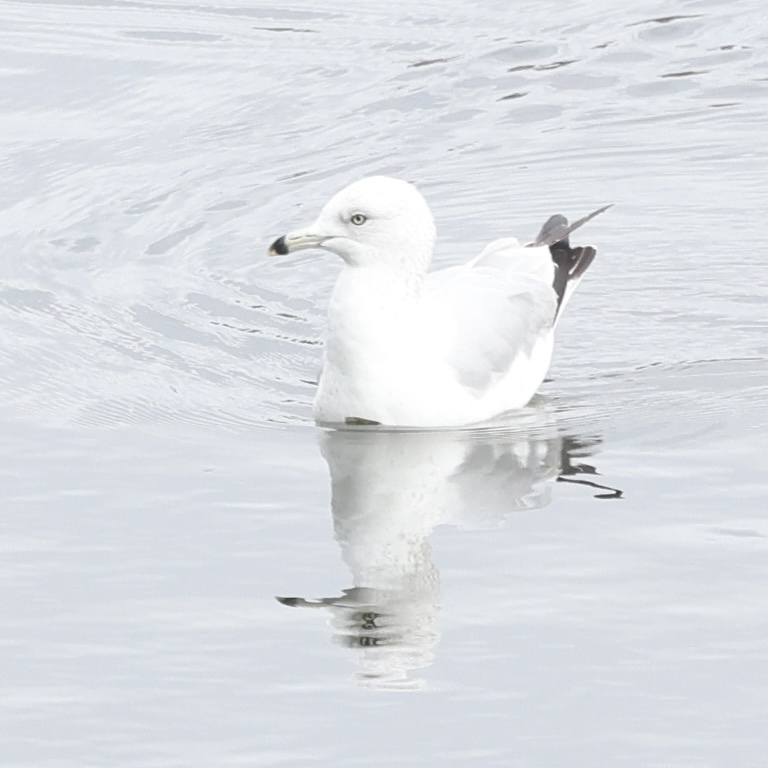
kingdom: Animalia
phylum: Chordata
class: Aves
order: Charadriiformes
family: Laridae
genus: Larus
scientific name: Larus delawarensis
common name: Ring-billed gull
